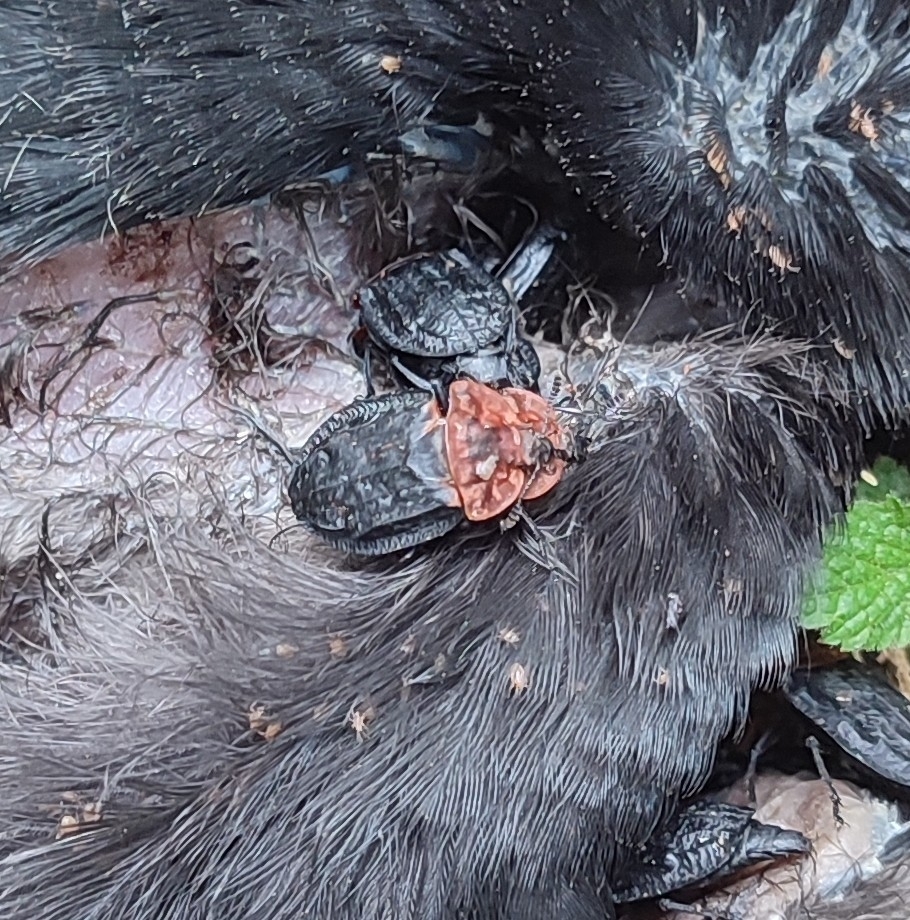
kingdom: Animalia
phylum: Arthropoda
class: Insecta
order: Coleoptera
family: Staphylinidae
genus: Oiceoptoma
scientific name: Oiceoptoma thoracicum
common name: Red-breasted carrion beetle
